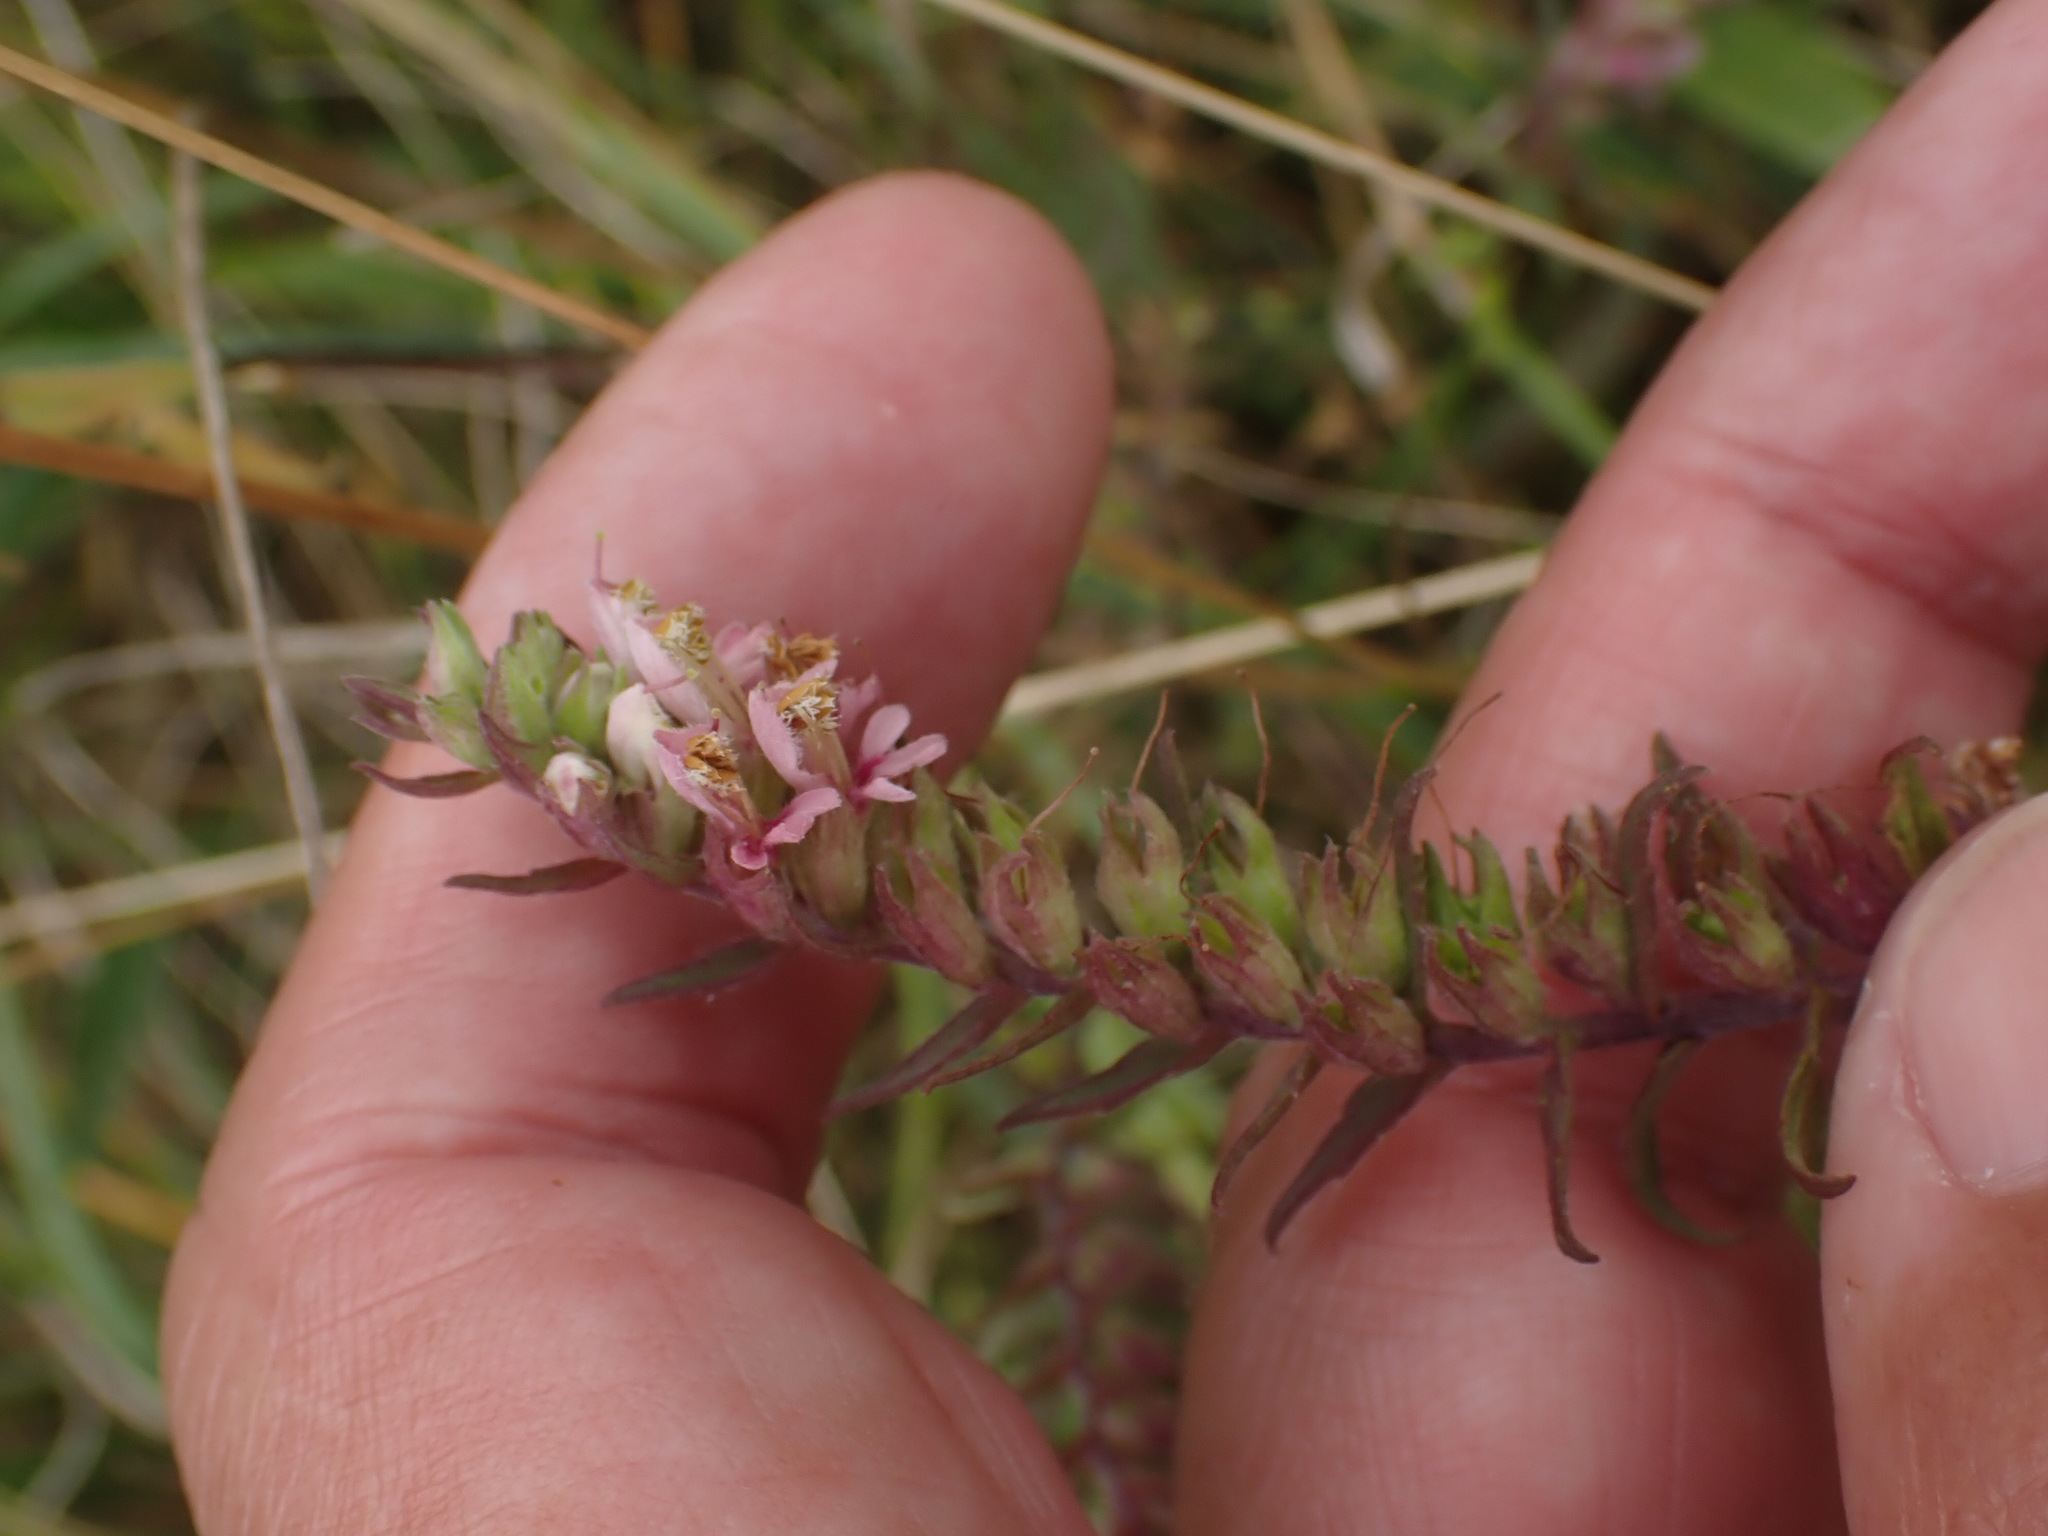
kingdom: Plantae
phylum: Tracheophyta
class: Magnoliopsida
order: Lamiales
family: Orobanchaceae
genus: Odontites
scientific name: Odontites vulgaris
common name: Broomrape
